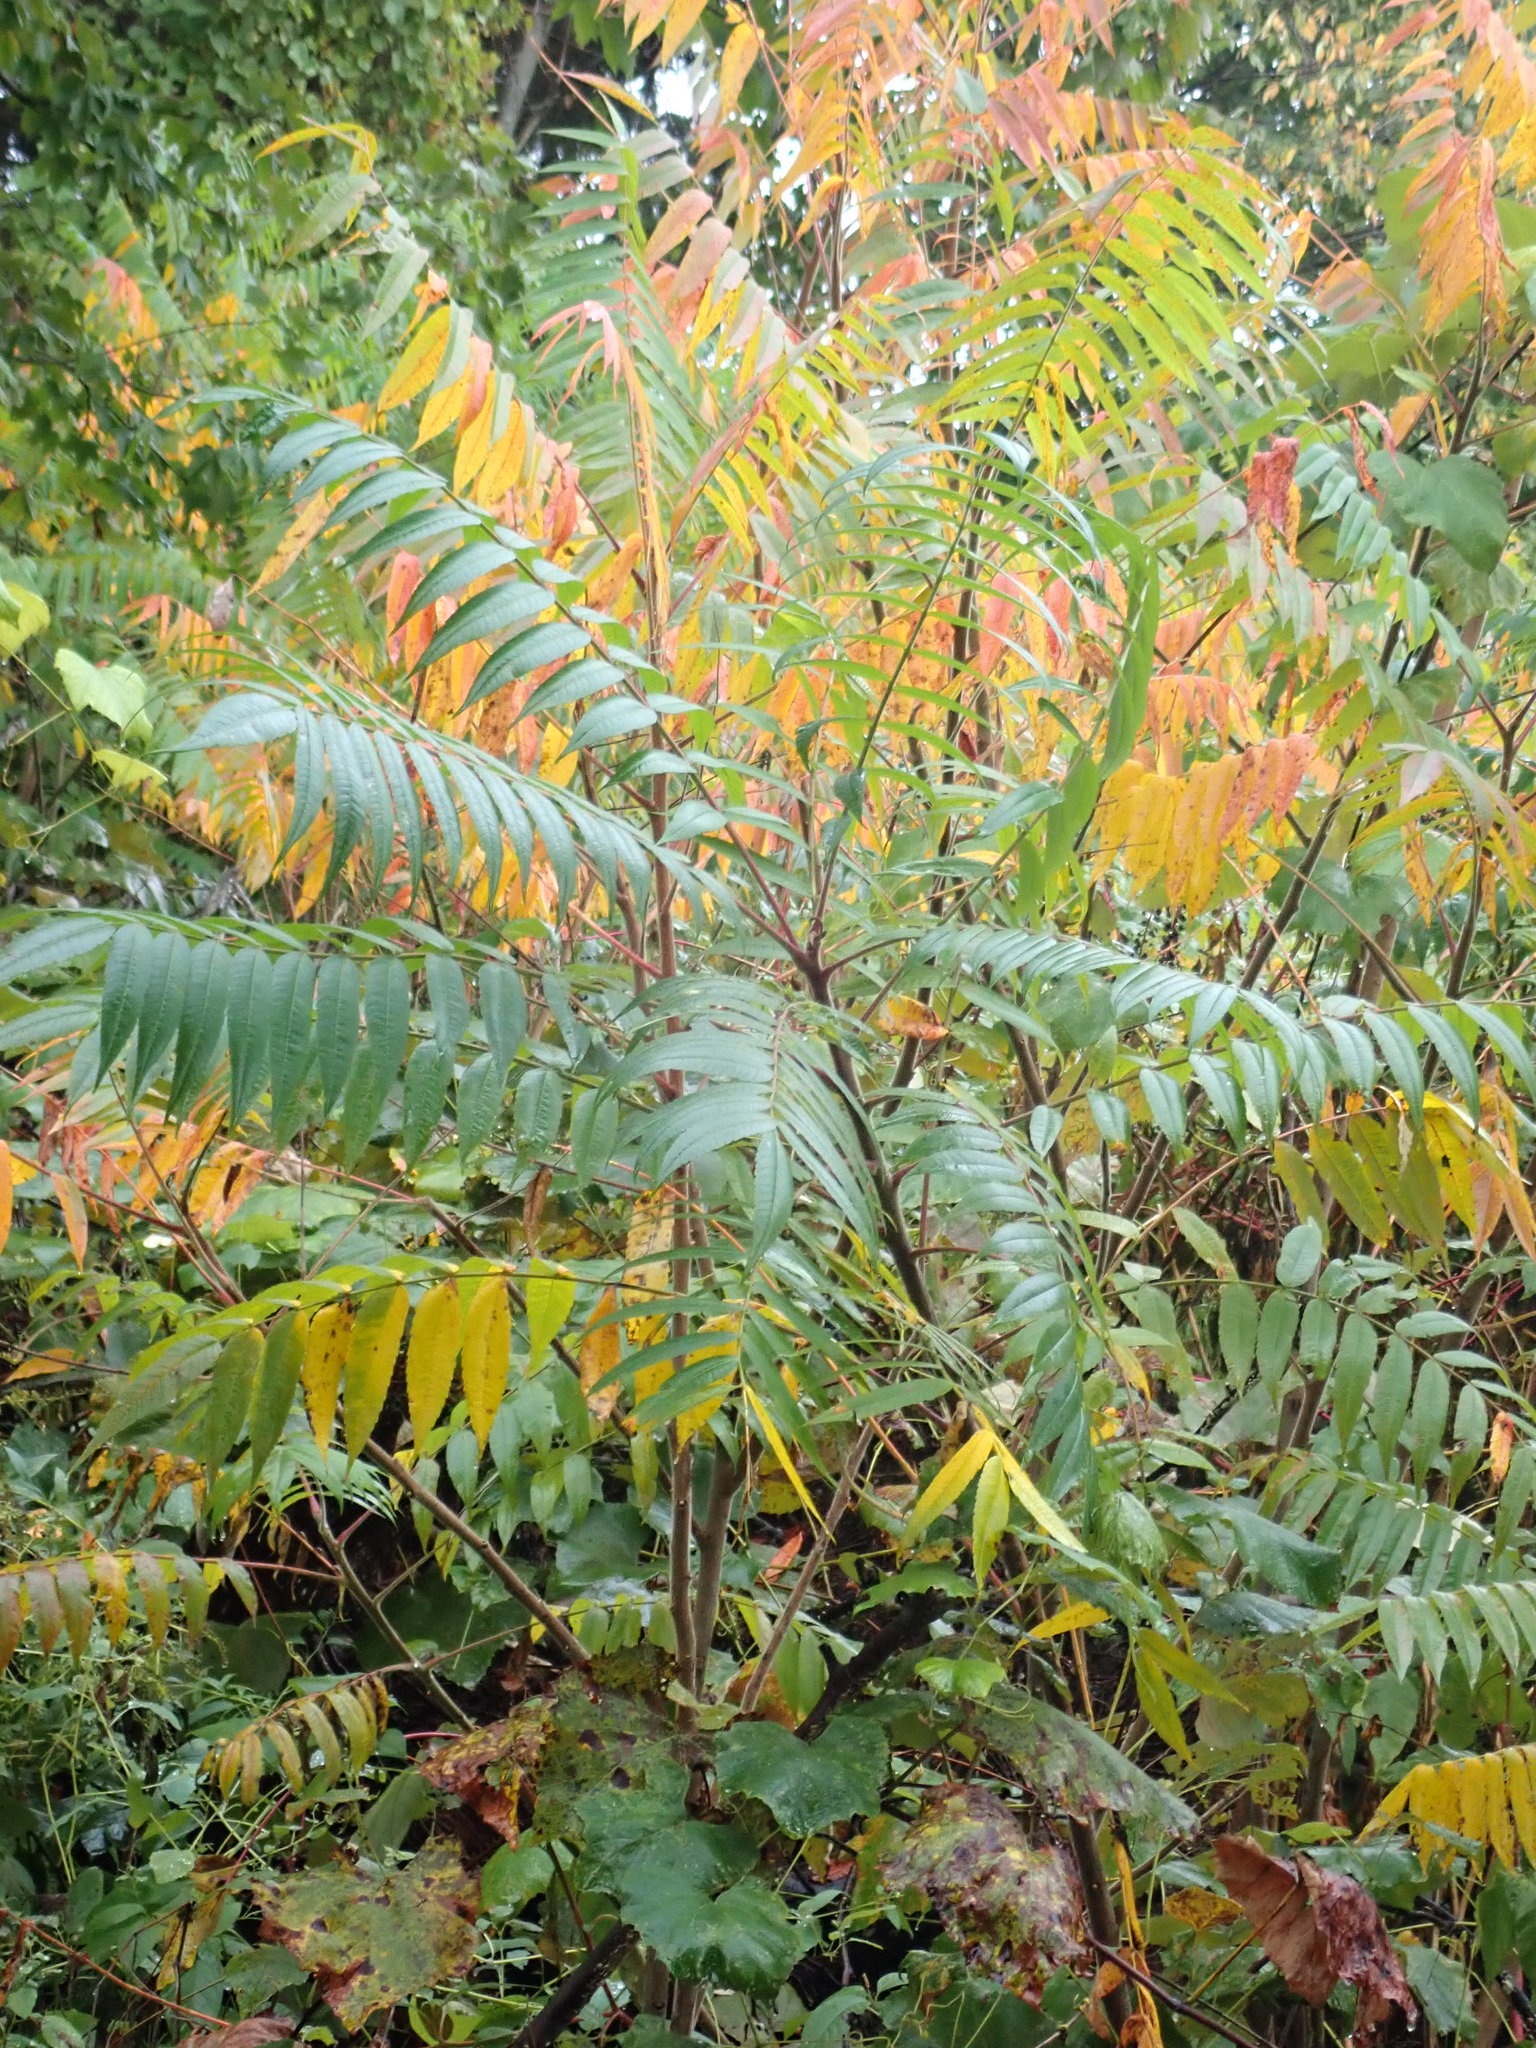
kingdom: Plantae
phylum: Tracheophyta
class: Magnoliopsida
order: Sapindales
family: Anacardiaceae
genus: Rhus
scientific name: Rhus typhina
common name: Staghorn sumac
